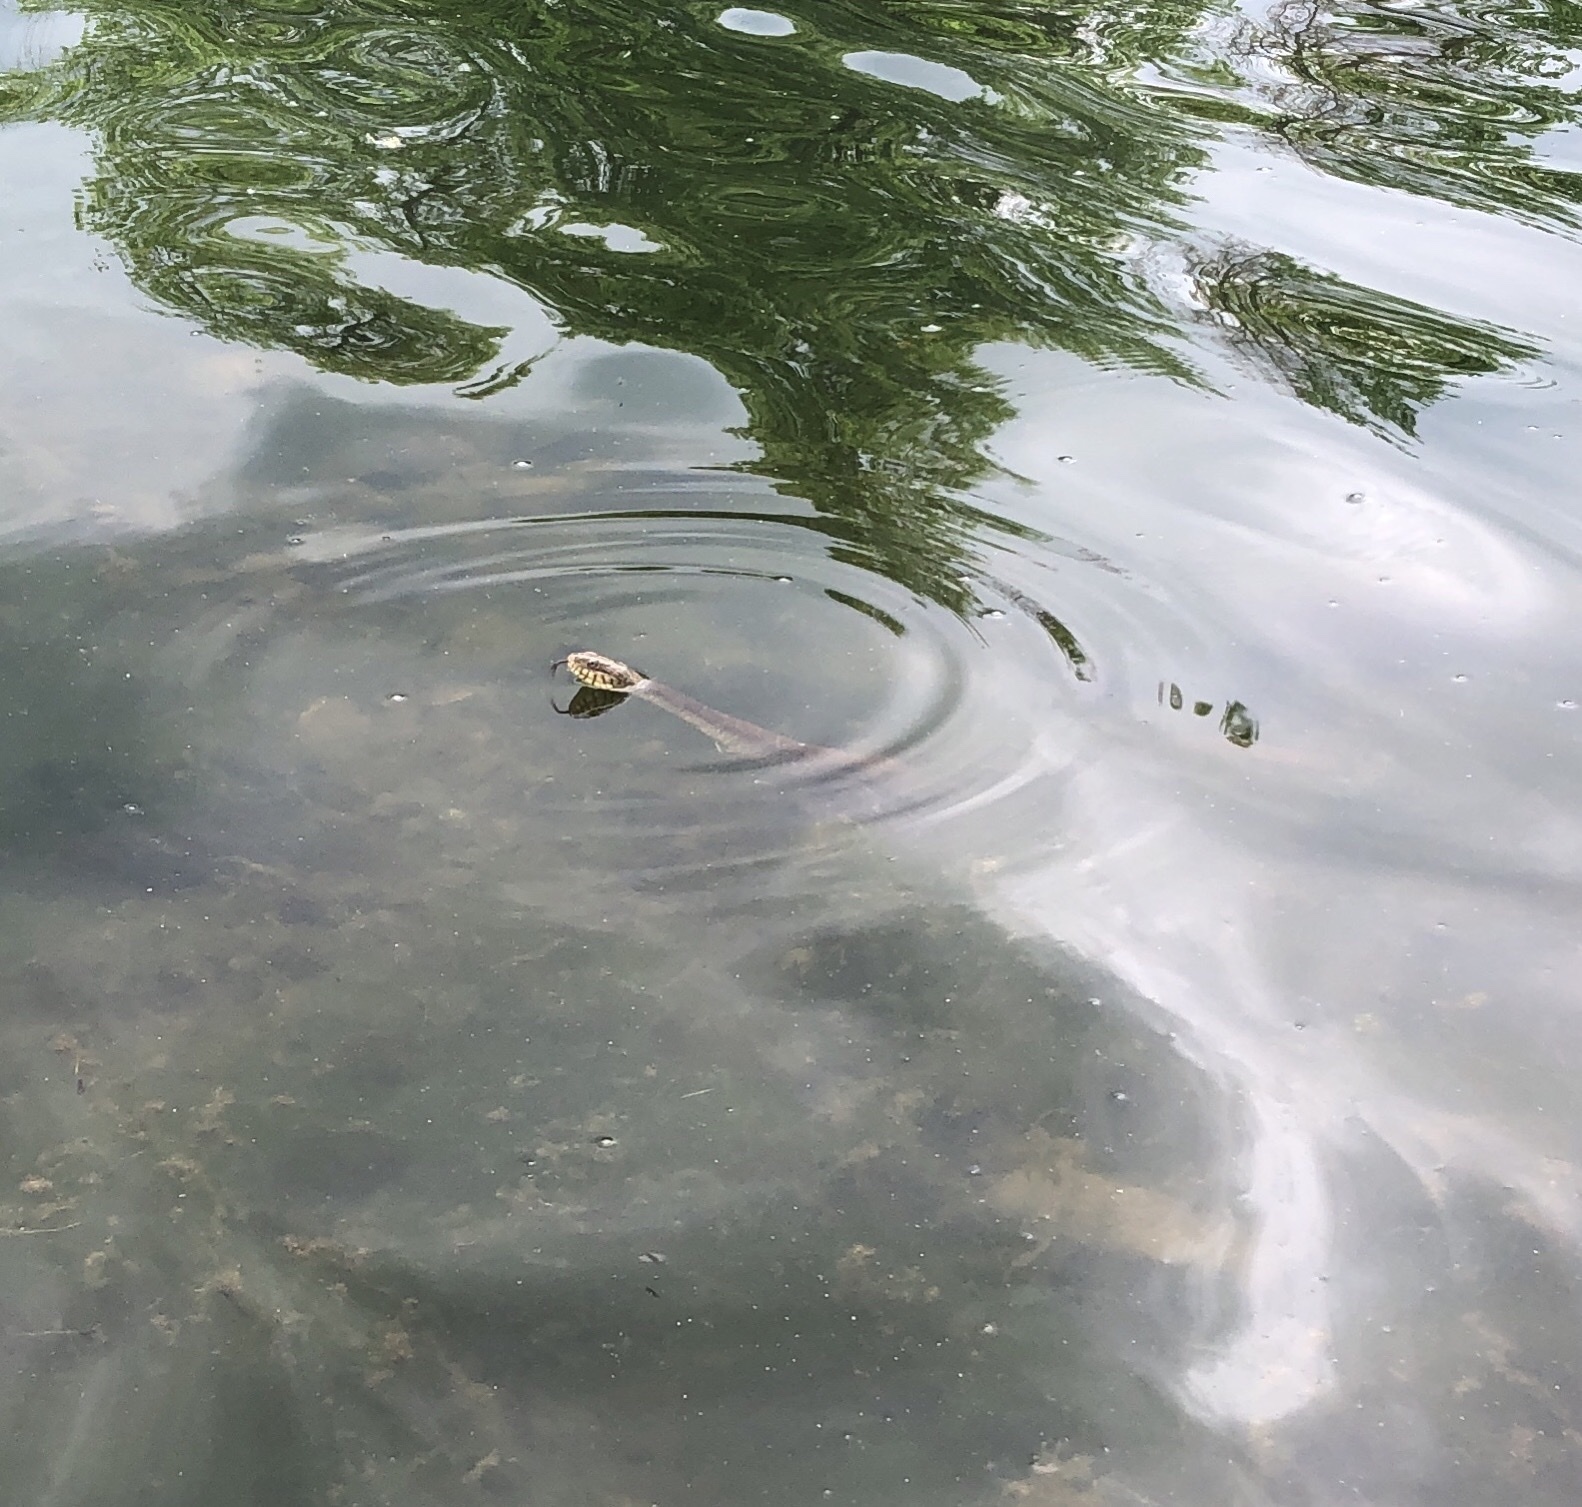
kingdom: Animalia
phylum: Chordata
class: Squamata
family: Colubridae
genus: Nerodia
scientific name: Nerodia sipedon
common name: Northern water snake
